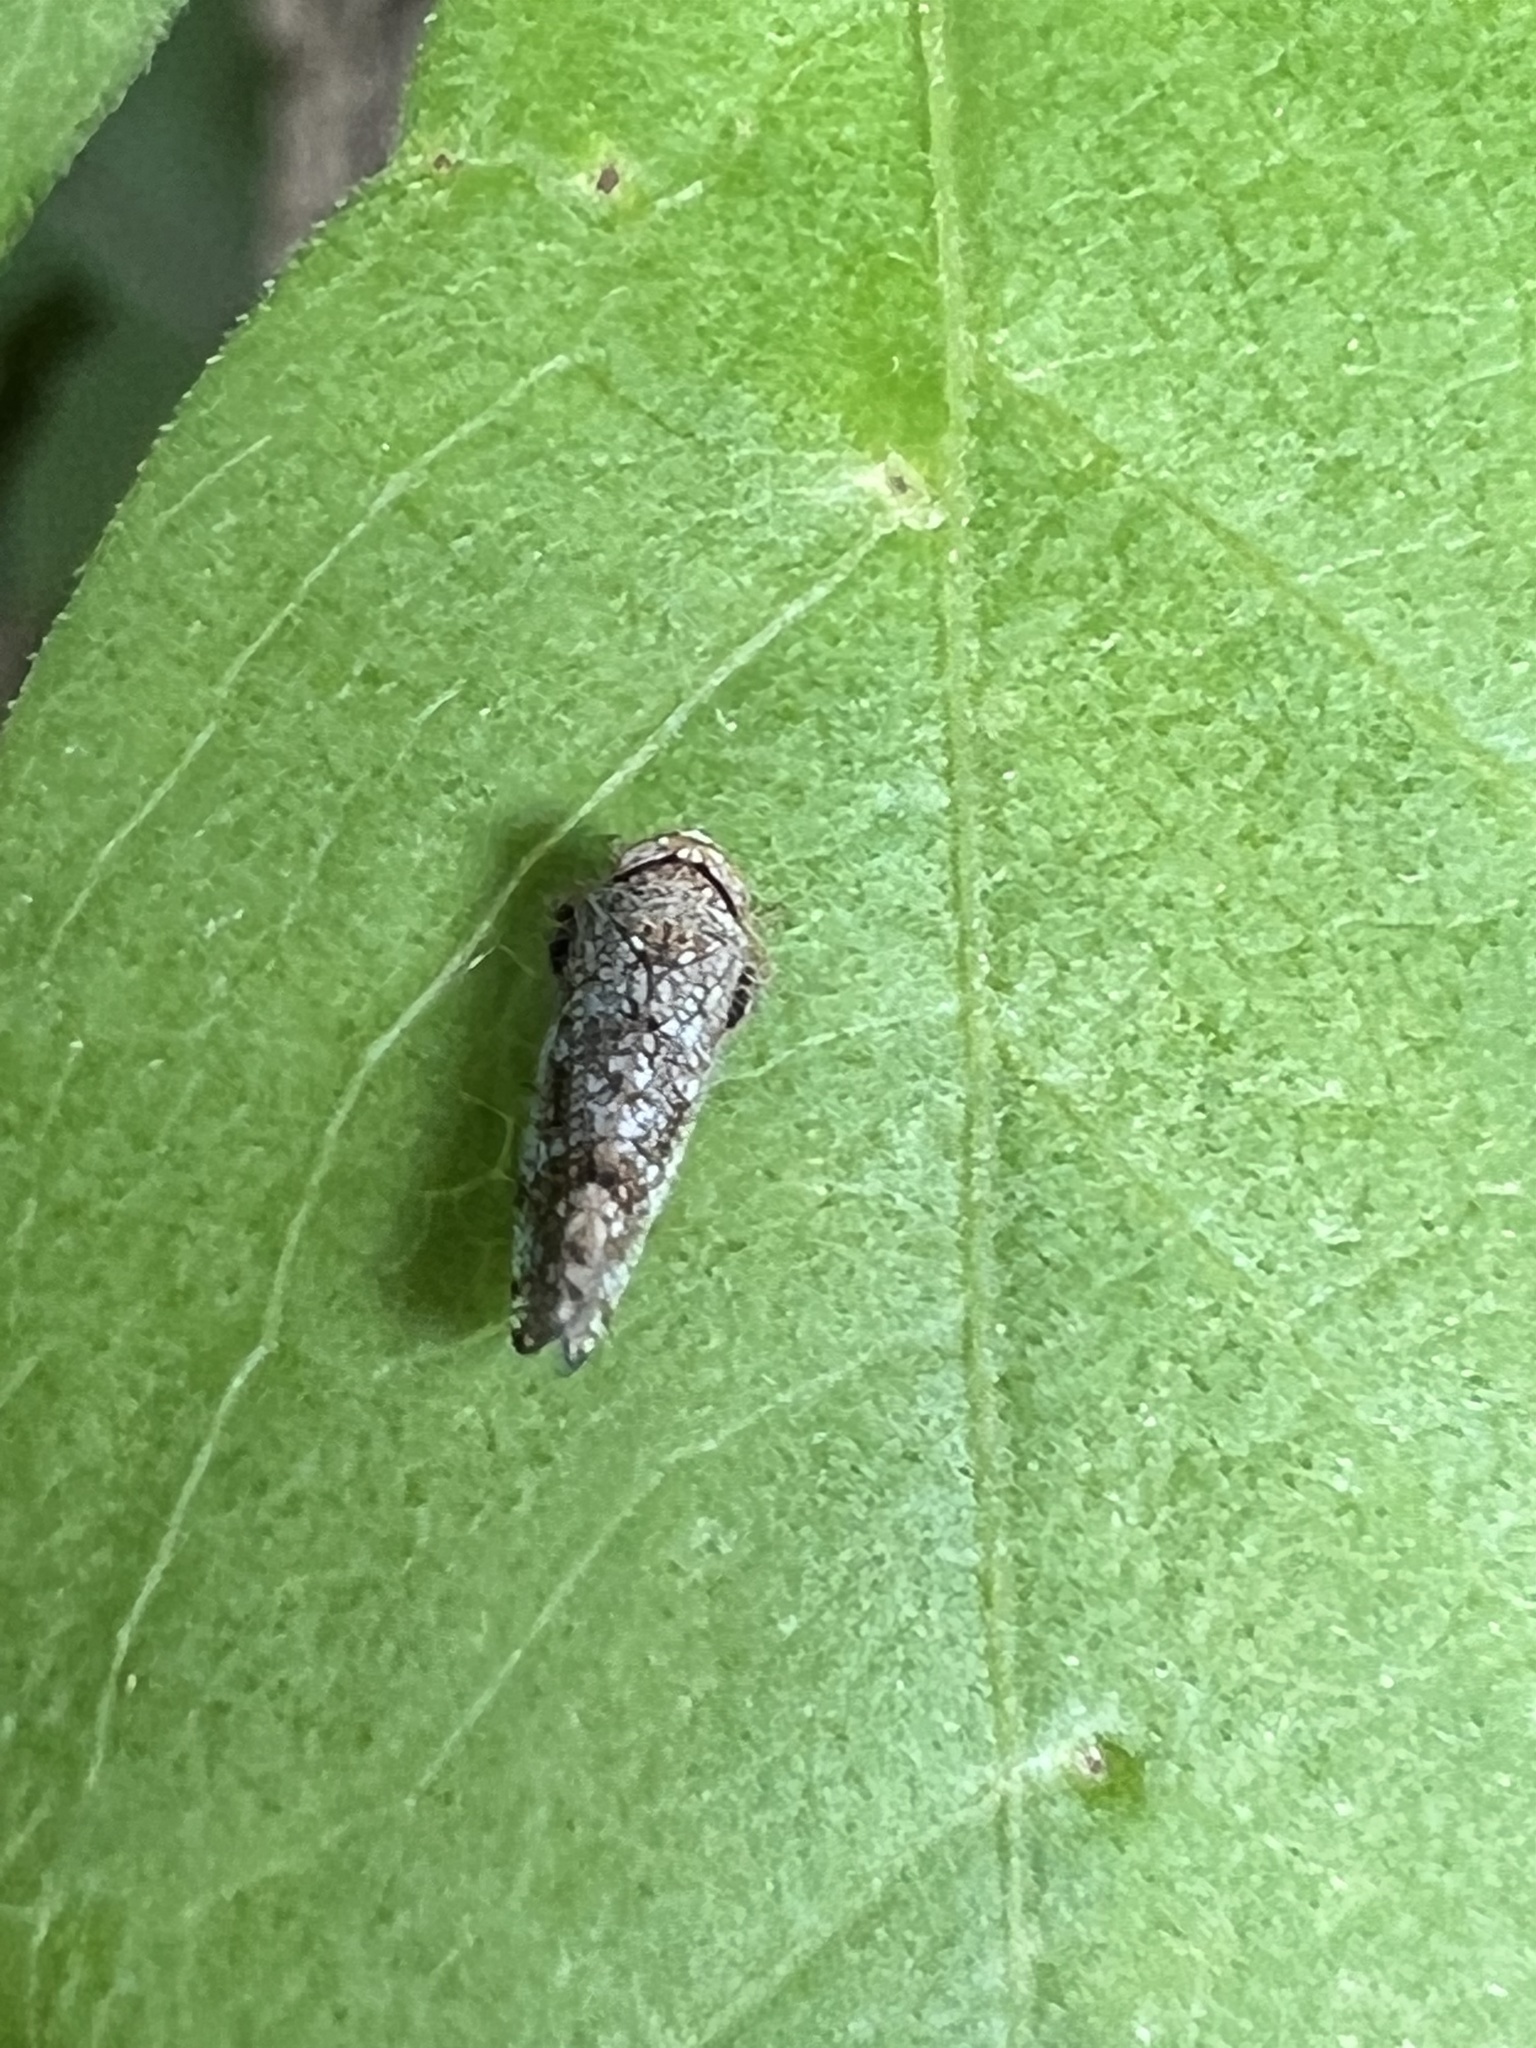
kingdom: Animalia
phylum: Arthropoda
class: Insecta
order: Hemiptera
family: Cicadellidae
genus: Orientus
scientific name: Orientus ishidae
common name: Japanese leafhopper
